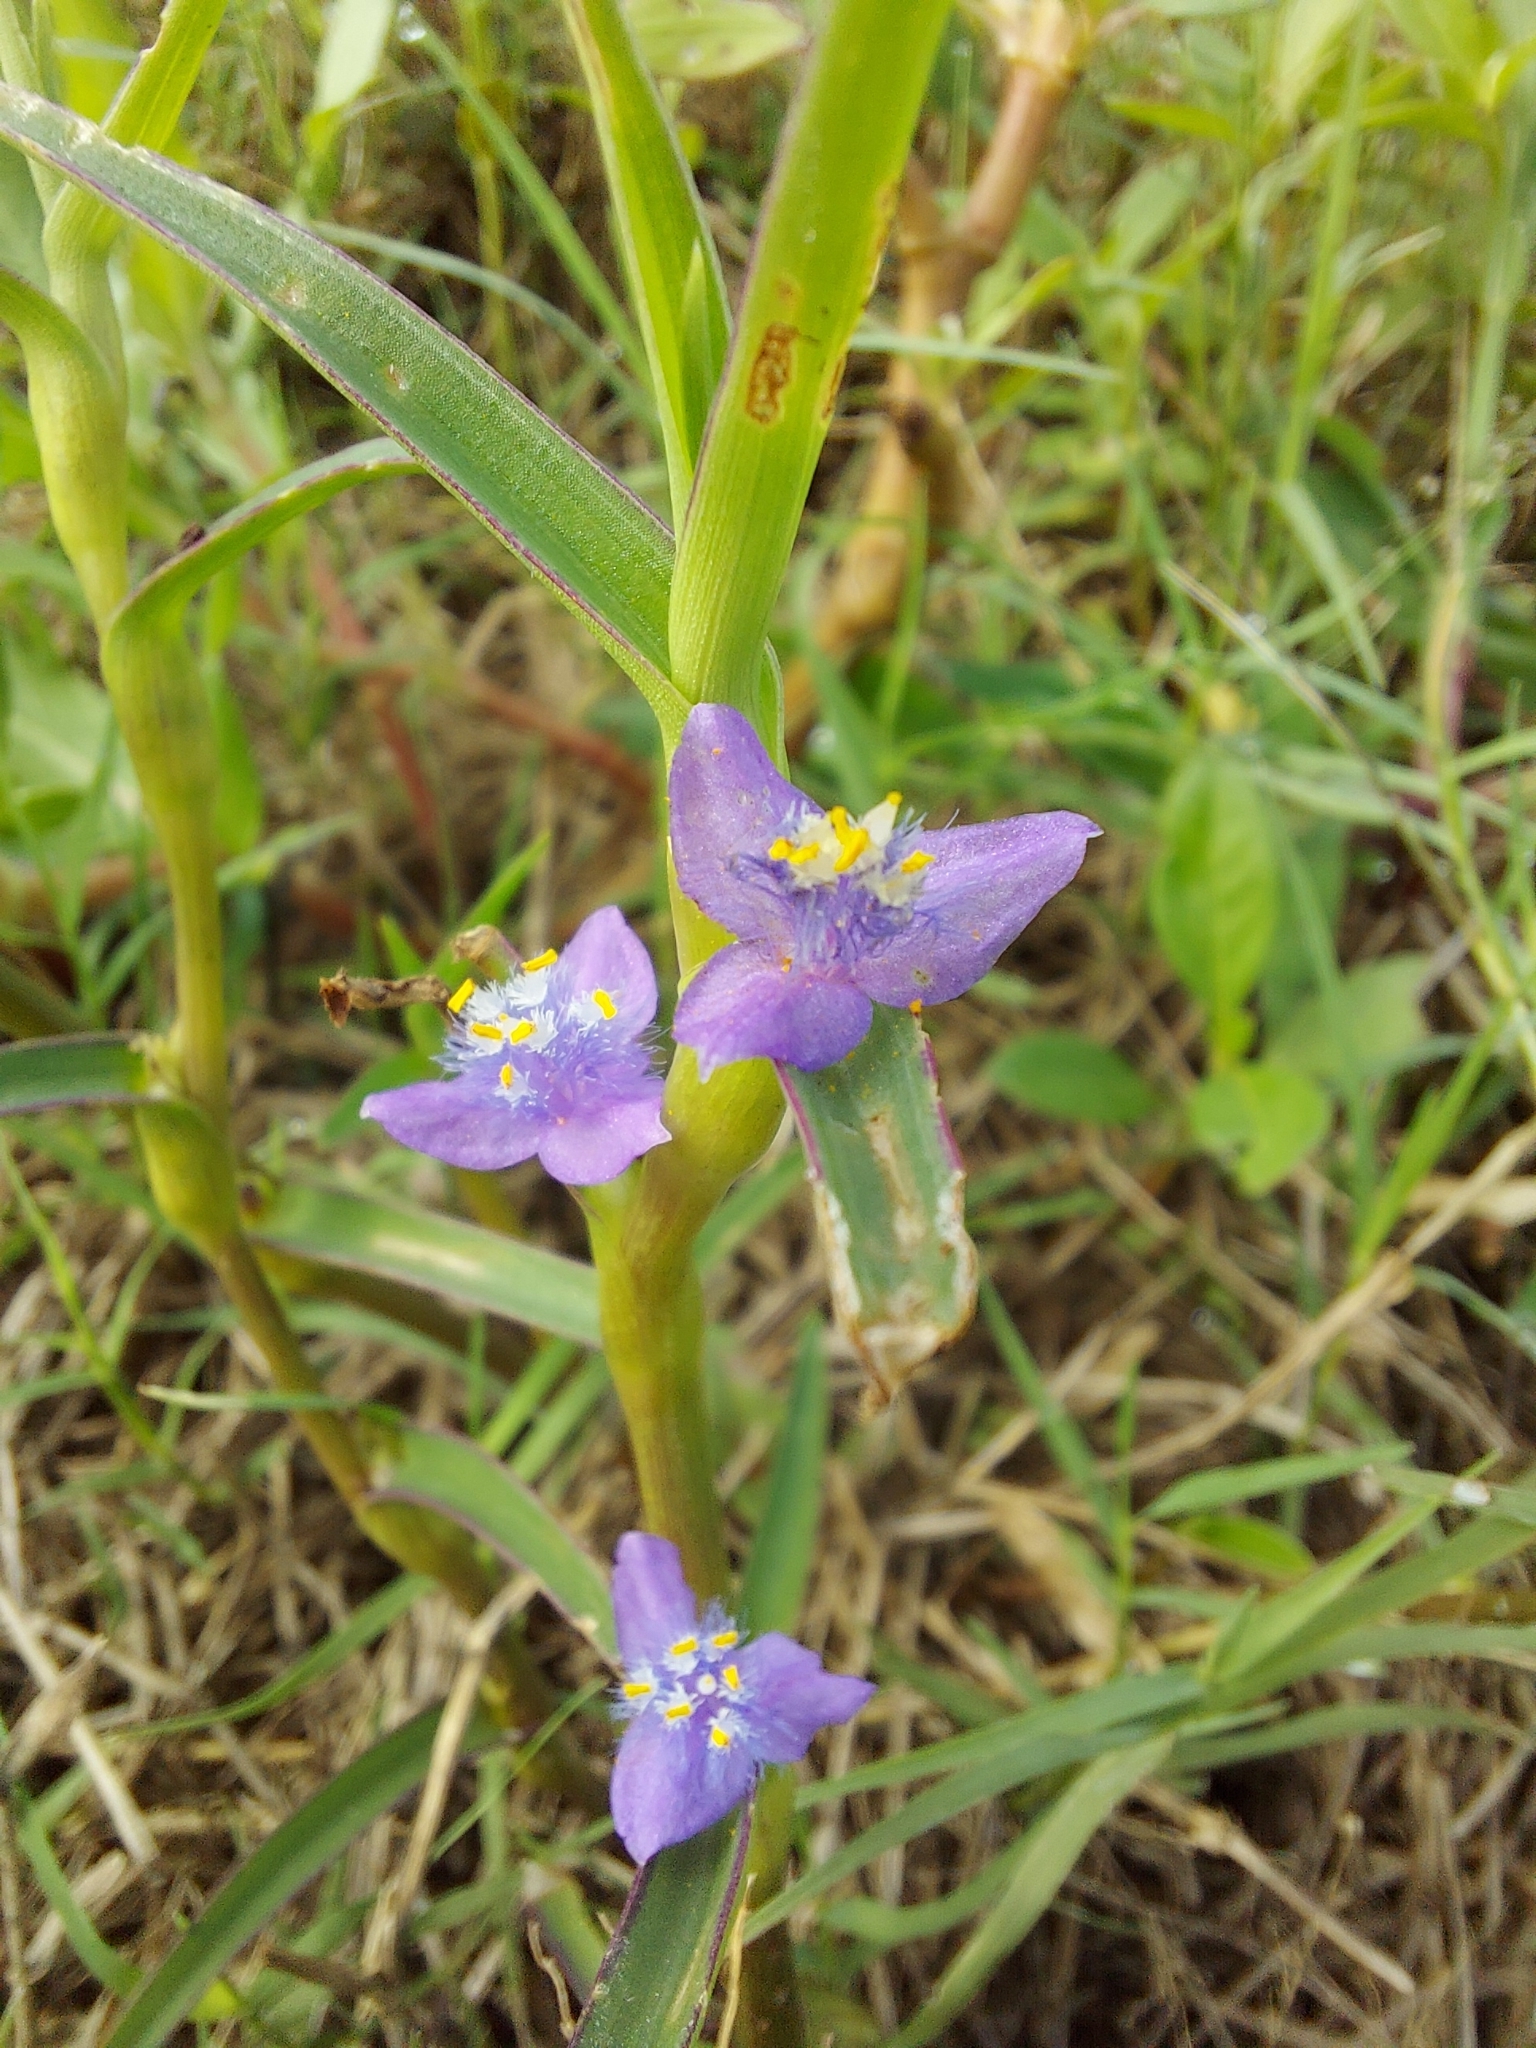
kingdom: Plantae
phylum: Tracheophyta
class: Liliopsida
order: Commelinales
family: Commelinaceae
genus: Cyanotis
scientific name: Cyanotis axillaris
